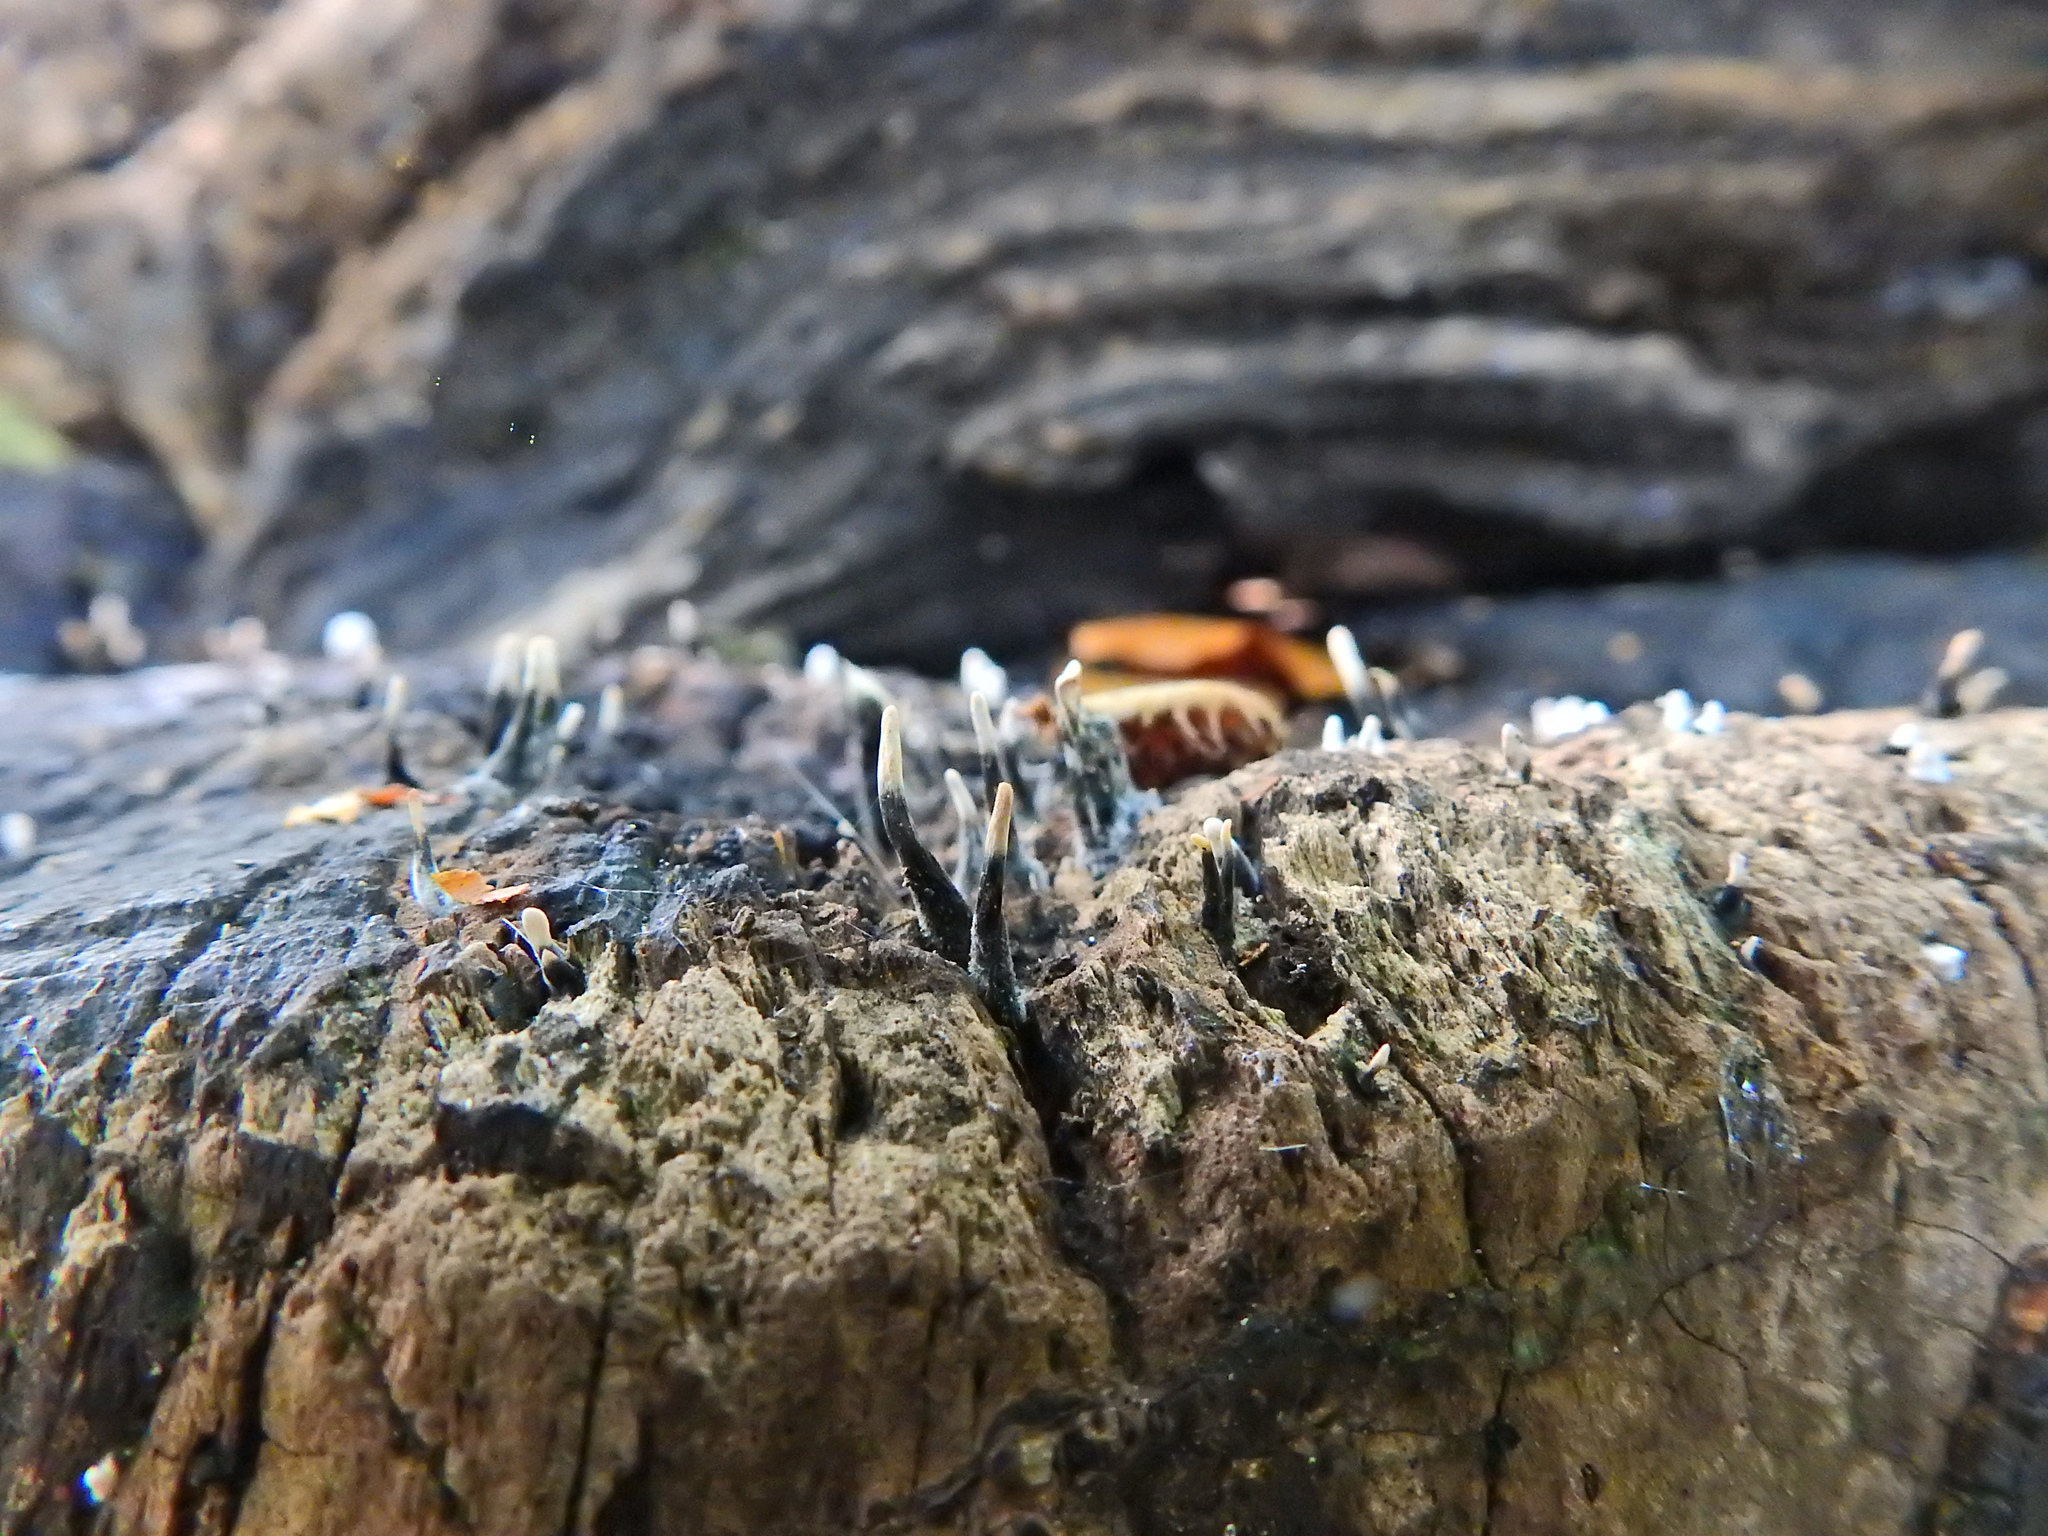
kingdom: Fungi
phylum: Ascomycota
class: Sordariomycetes
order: Xylariales
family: Xylariaceae
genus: Xylaria
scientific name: Xylaria hypoxylon
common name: Candle-snuff fungus
